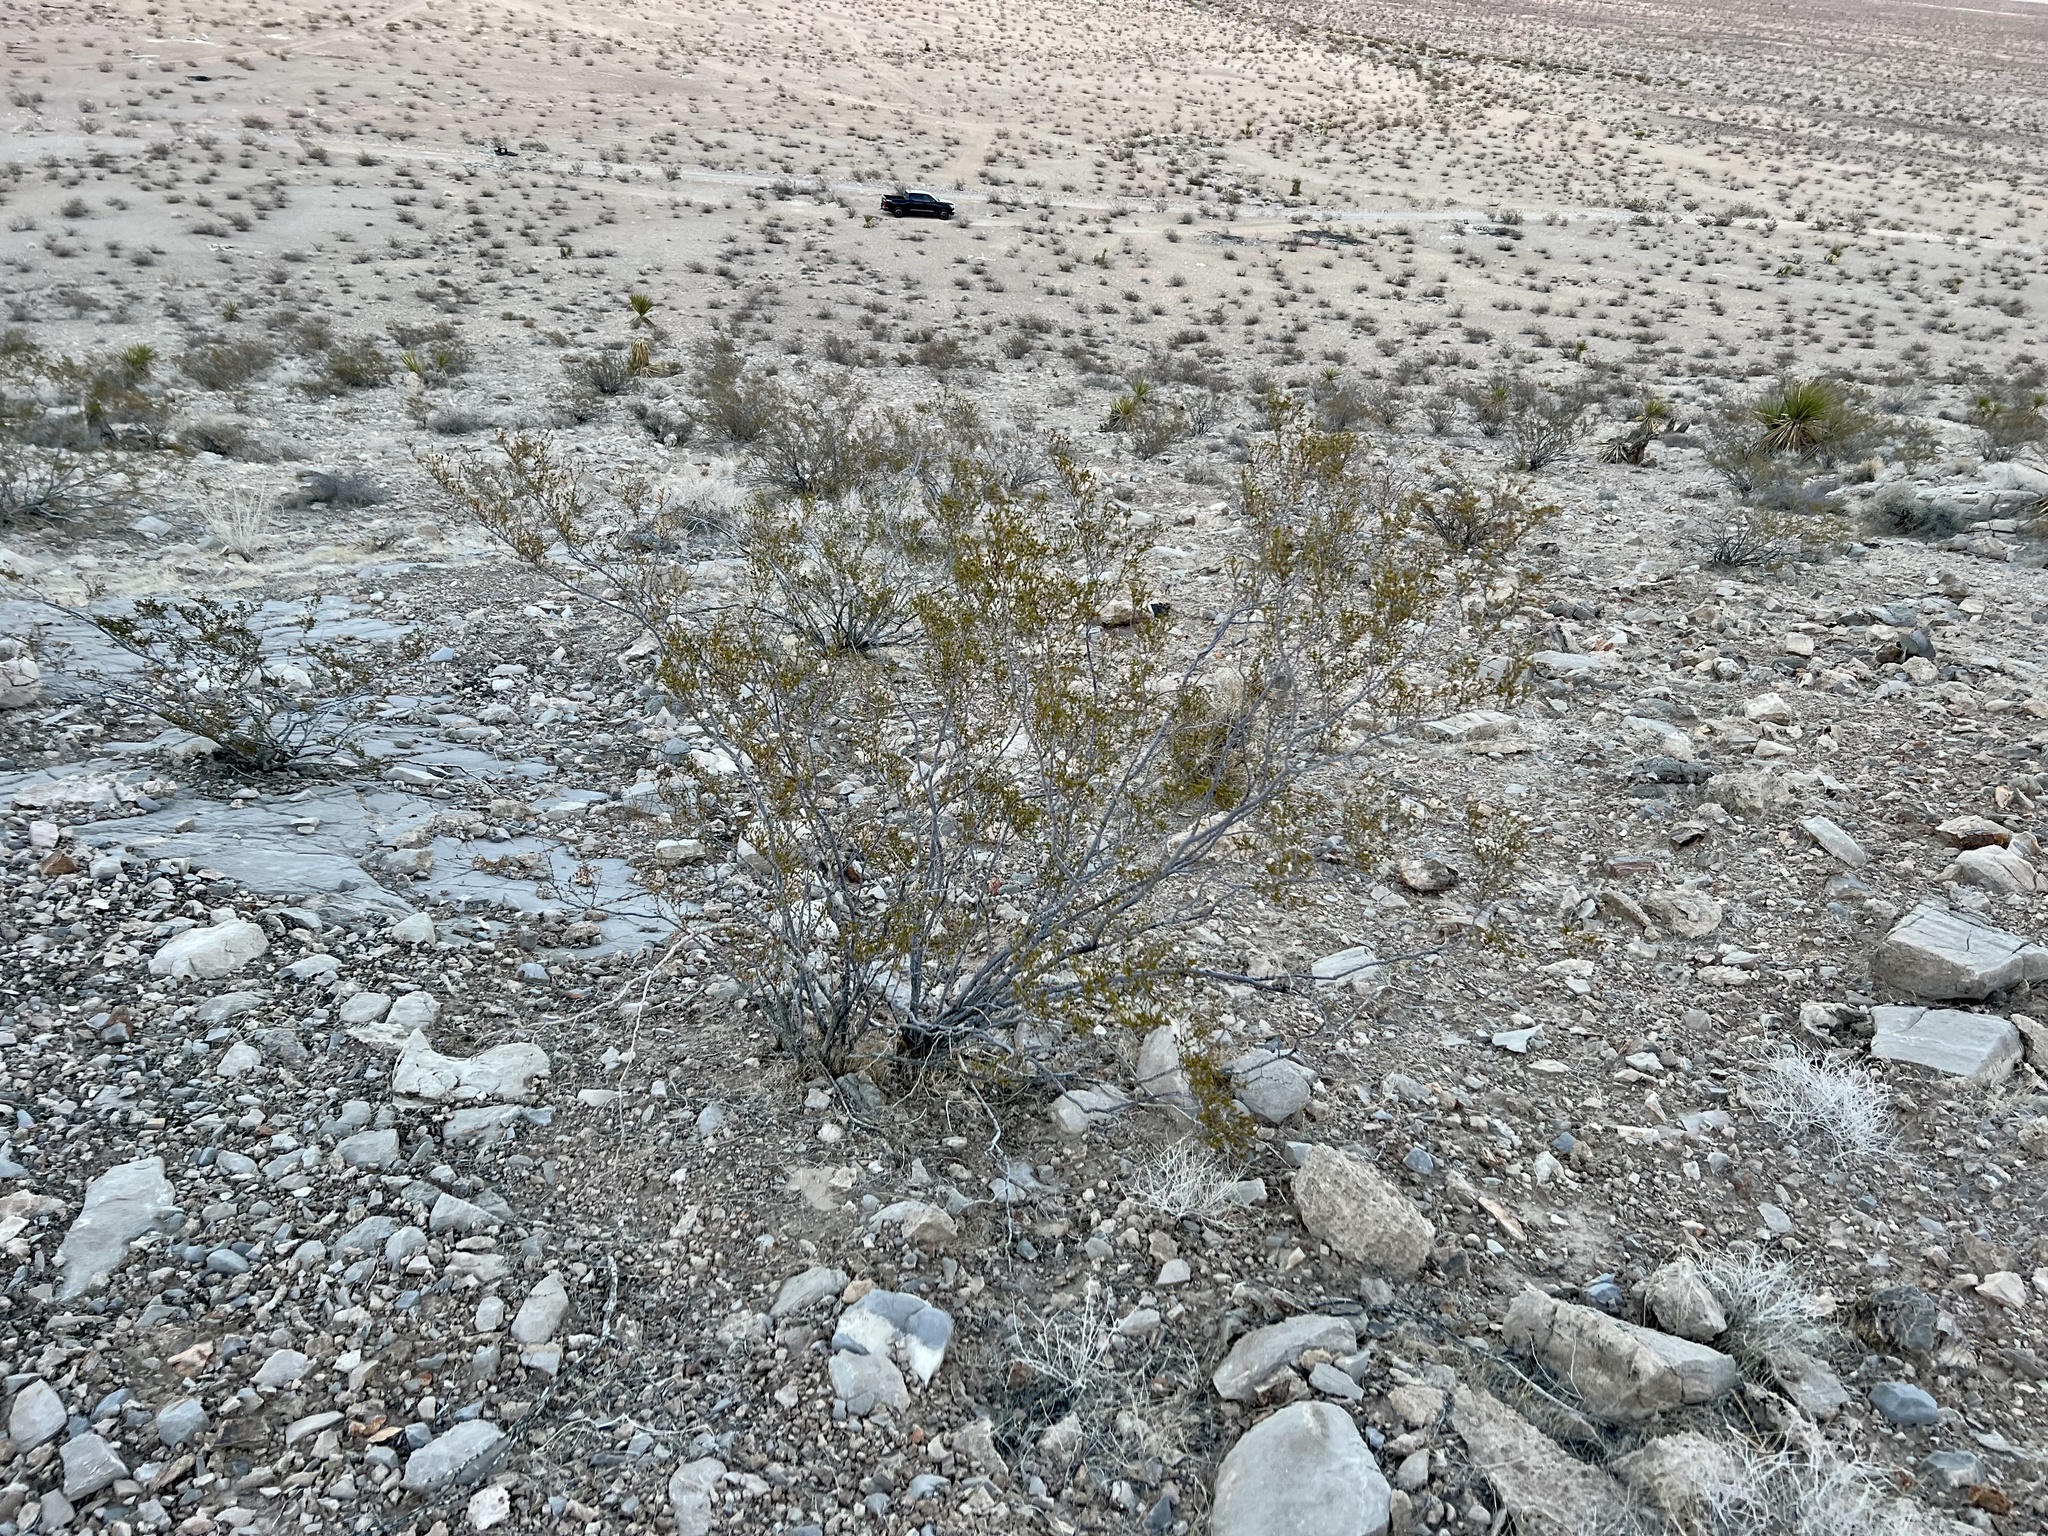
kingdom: Plantae
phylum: Tracheophyta
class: Magnoliopsida
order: Zygophyllales
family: Zygophyllaceae
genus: Larrea
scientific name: Larrea tridentata
